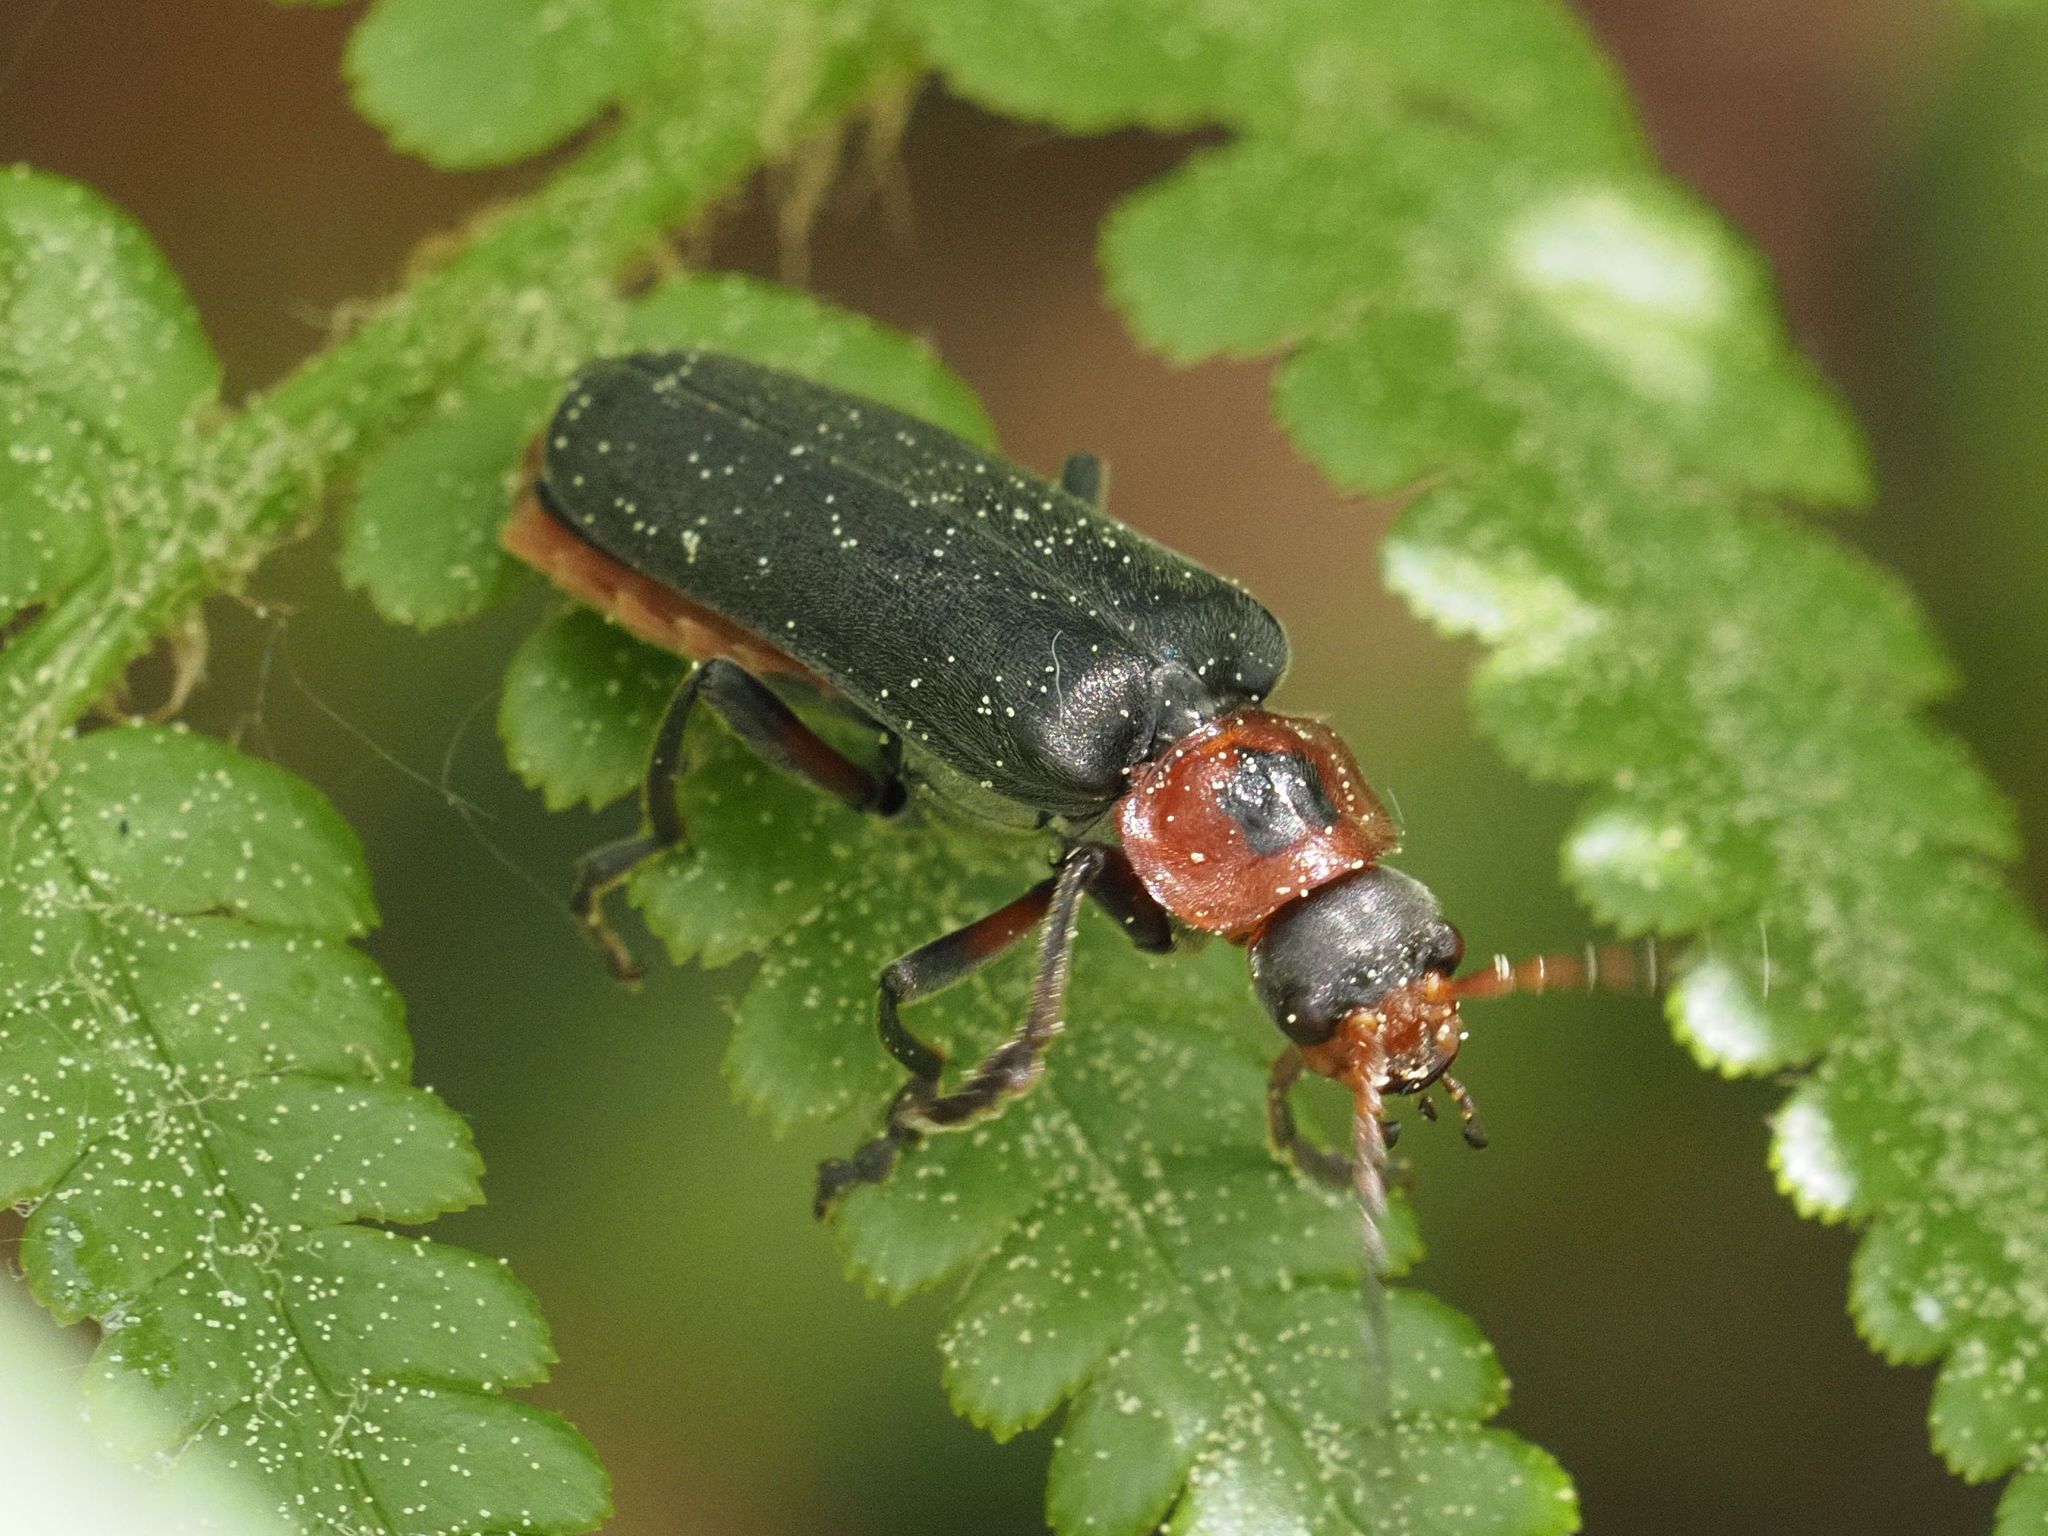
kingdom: Animalia
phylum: Arthropoda
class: Insecta
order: Coleoptera
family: Cantharidae
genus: Cantharis
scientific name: Cantharis rustica
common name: Soldier beetle
